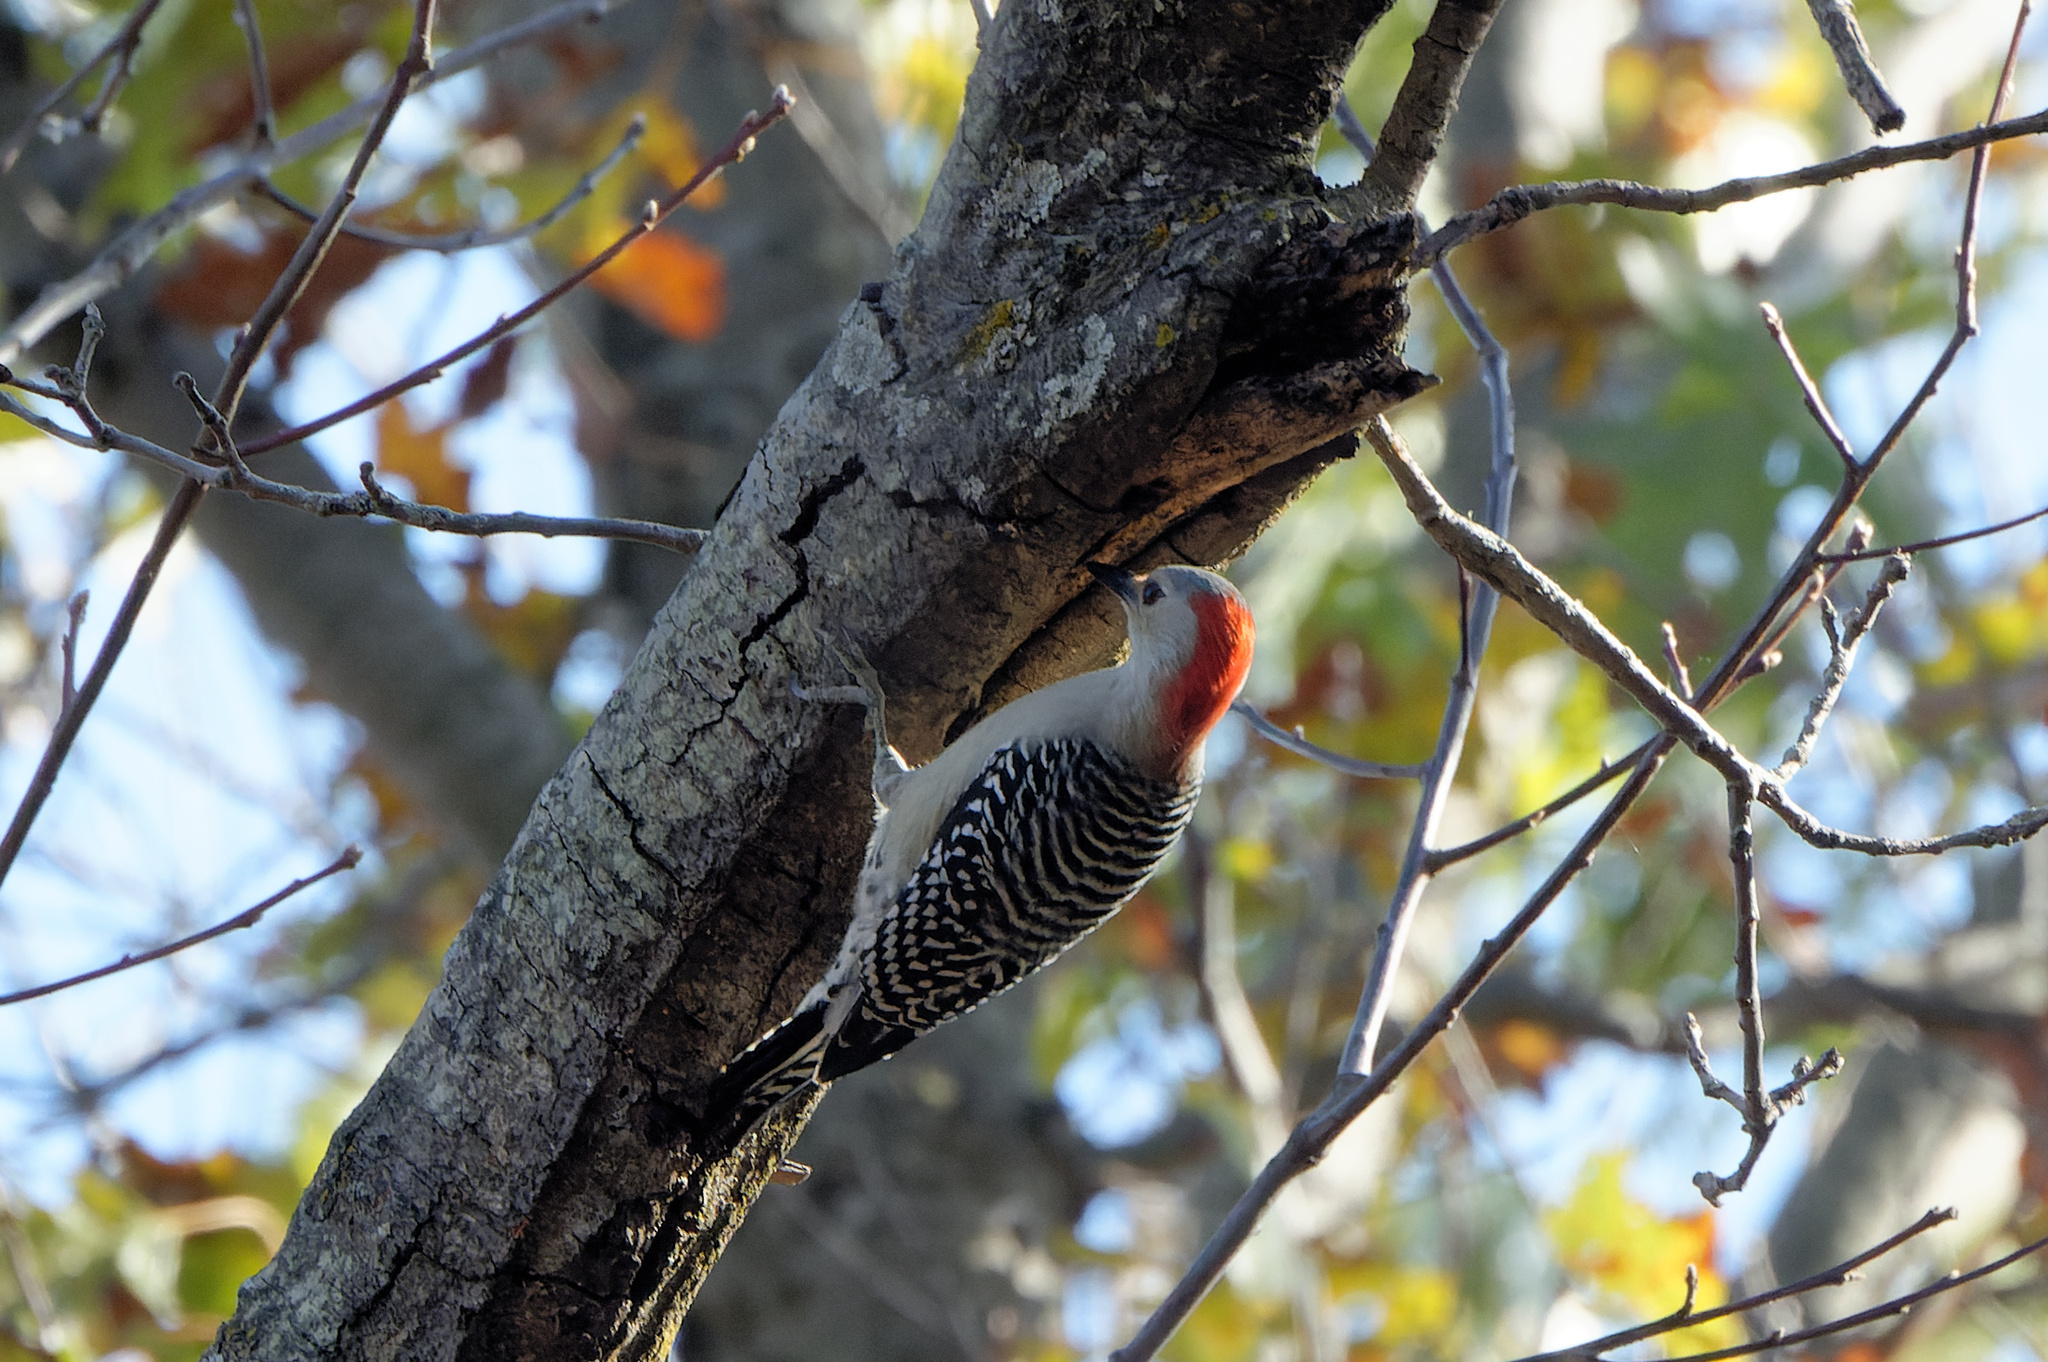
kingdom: Animalia
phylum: Chordata
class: Aves
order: Piciformes
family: Picidae
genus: Melanerpes
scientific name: Melanerpes carolinus
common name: Red-bellied woodpecker
